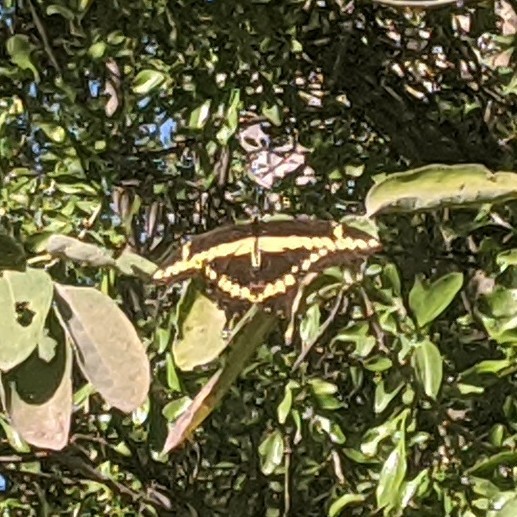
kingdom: Animalia
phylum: Arthropoda
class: Insecta
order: Lepidoptera
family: Papilionidae
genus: Papilio
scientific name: Papilio rumiko
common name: Western giant swallowtail
